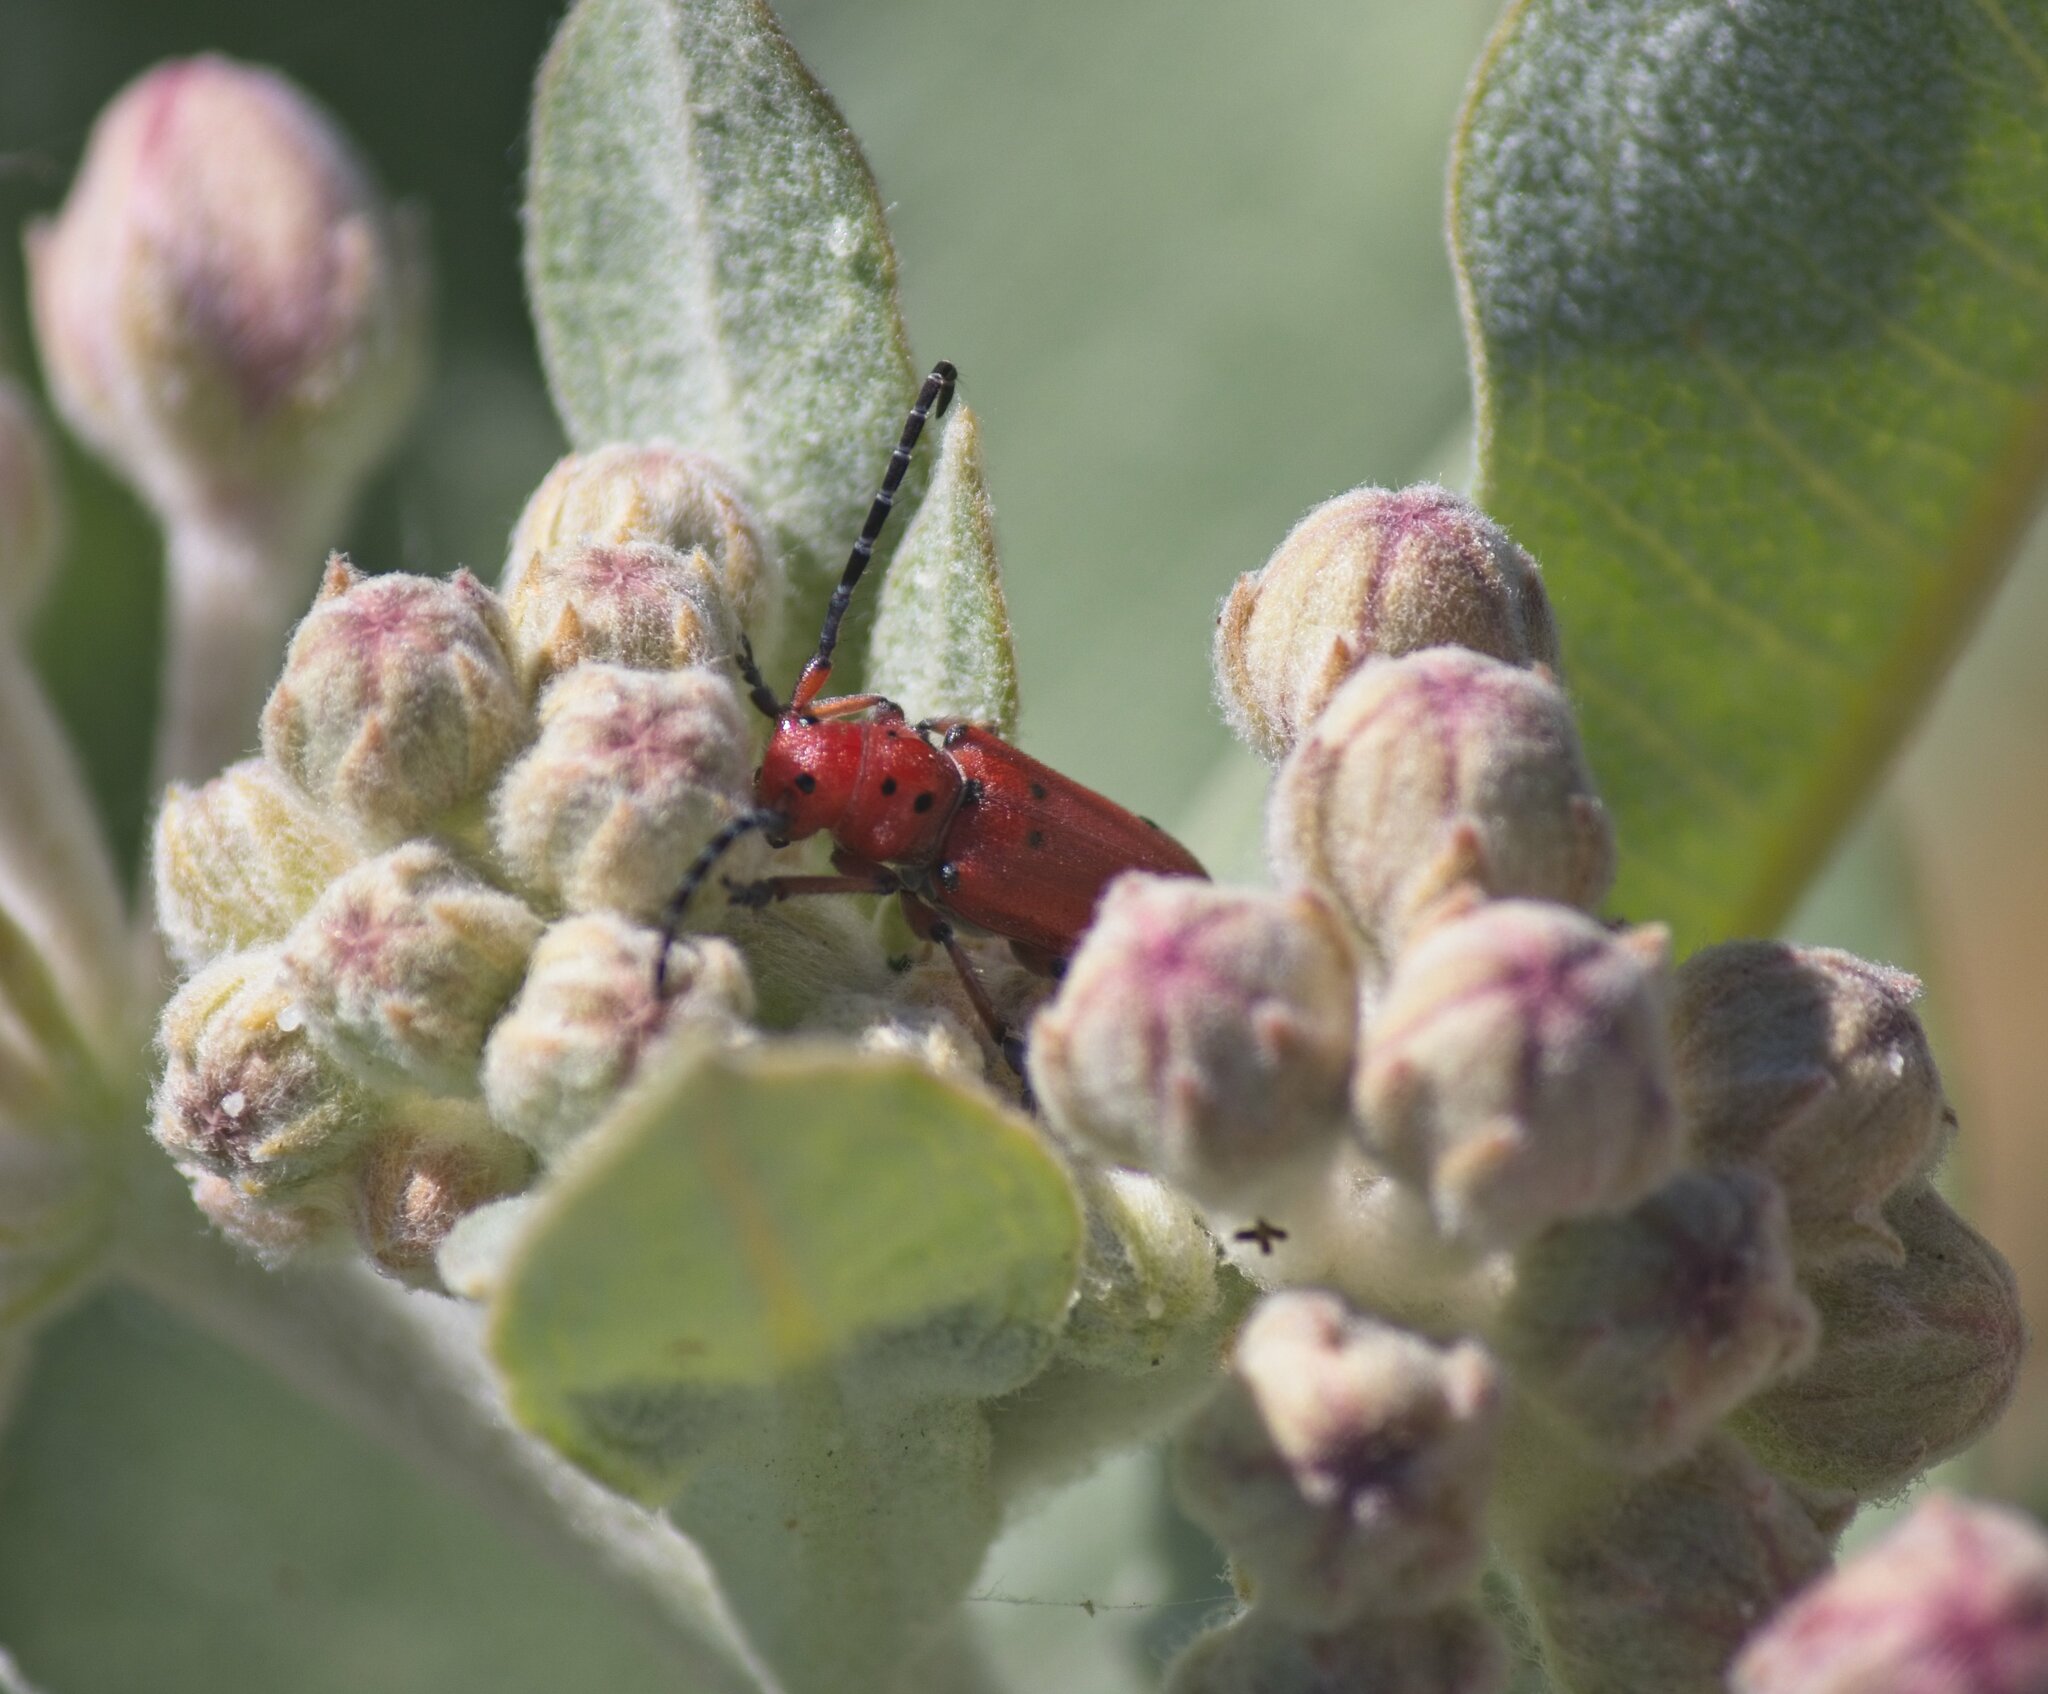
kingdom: Animalia
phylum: Arthropoda
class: Insecta
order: Coleoptera
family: Cerambycidae
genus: Tetraopes
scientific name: Tetraopes femoratus
